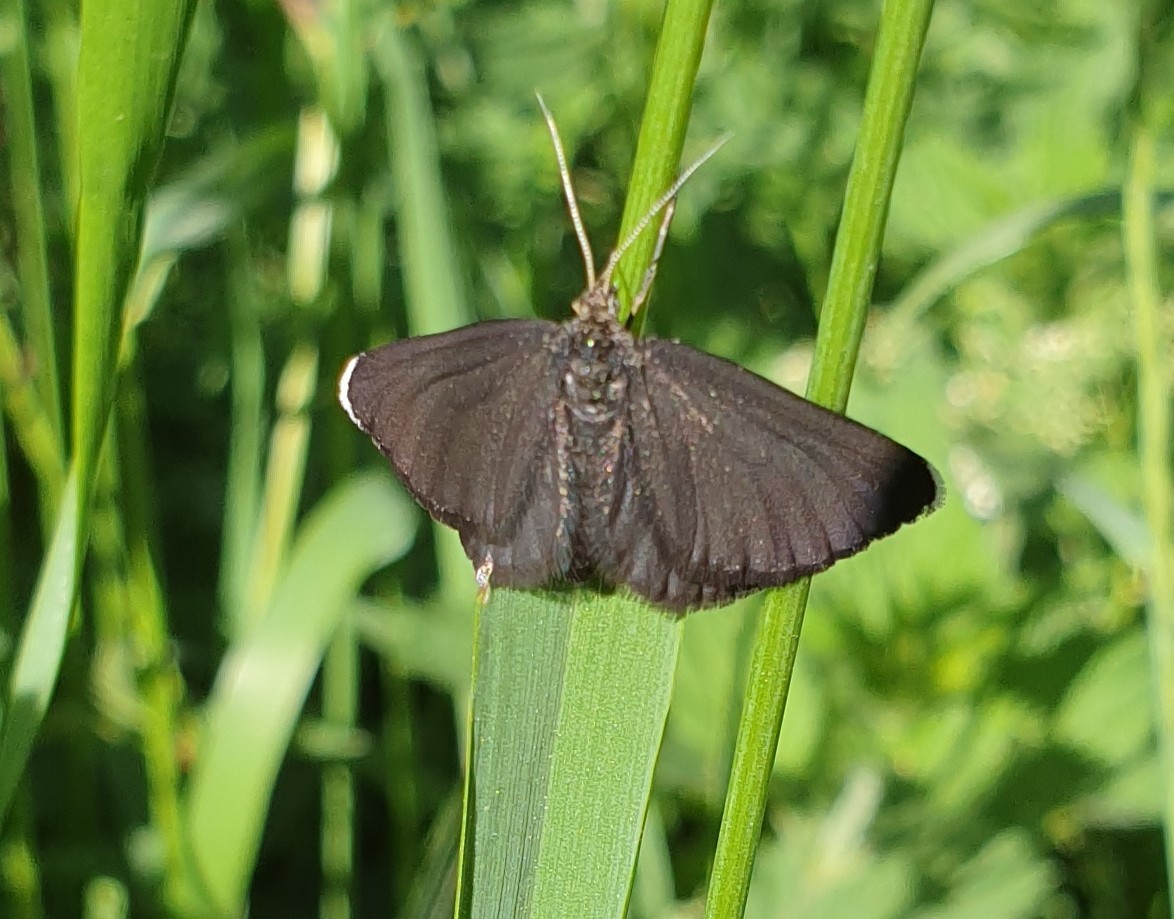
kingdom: Animalia
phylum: Arthropoda
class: Insecta
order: Lepidoptera
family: Geometridae
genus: Odezia
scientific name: Odezia atrata
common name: Chimney sweeper
